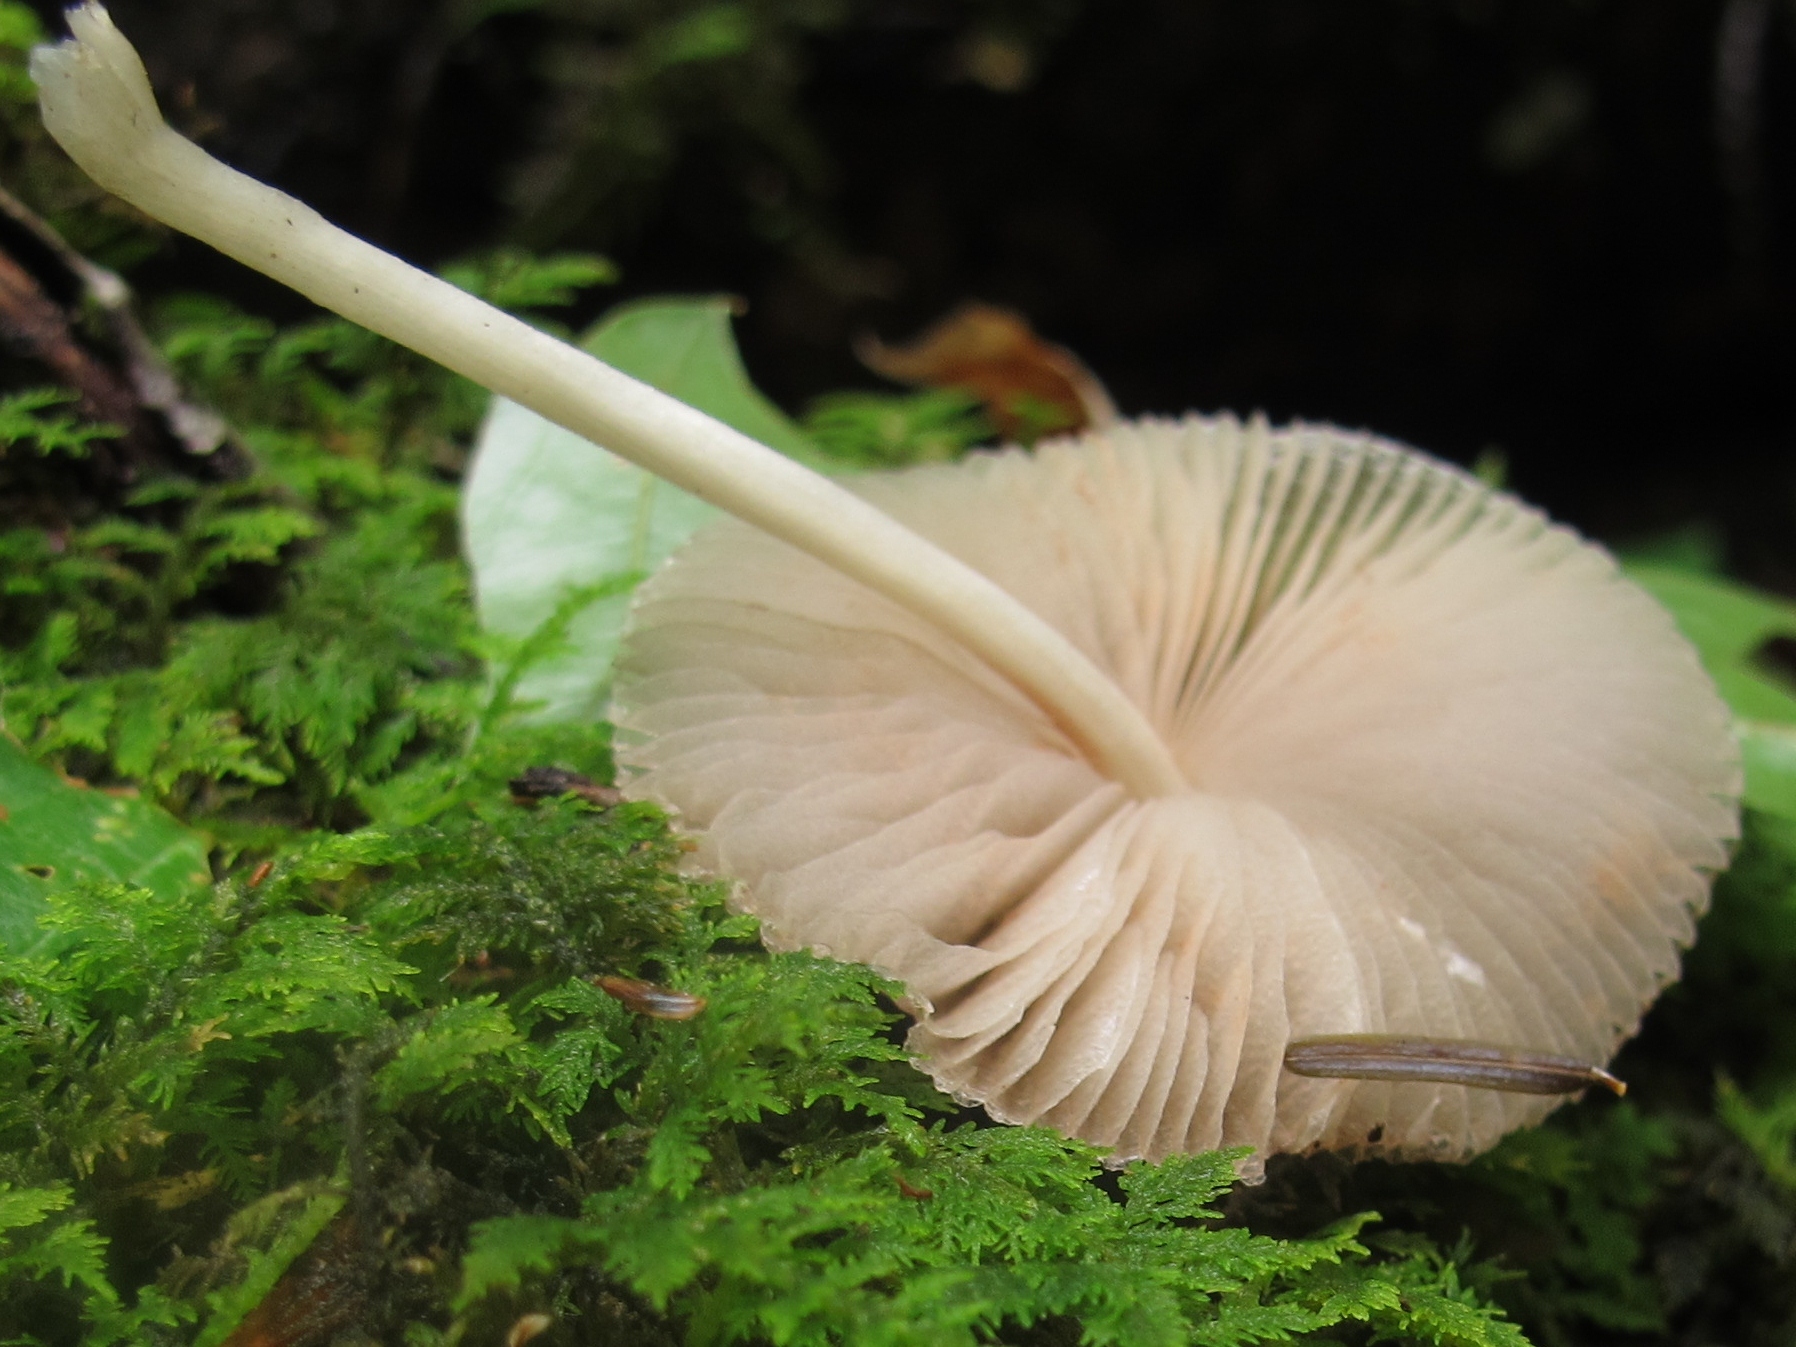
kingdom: Fungi
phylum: Basidiomycota
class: Agaricomycetes
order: Agaricales
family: Pluteaceae
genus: Pluteus
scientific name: Pluteus longistriatus
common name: Pleated pluteus
